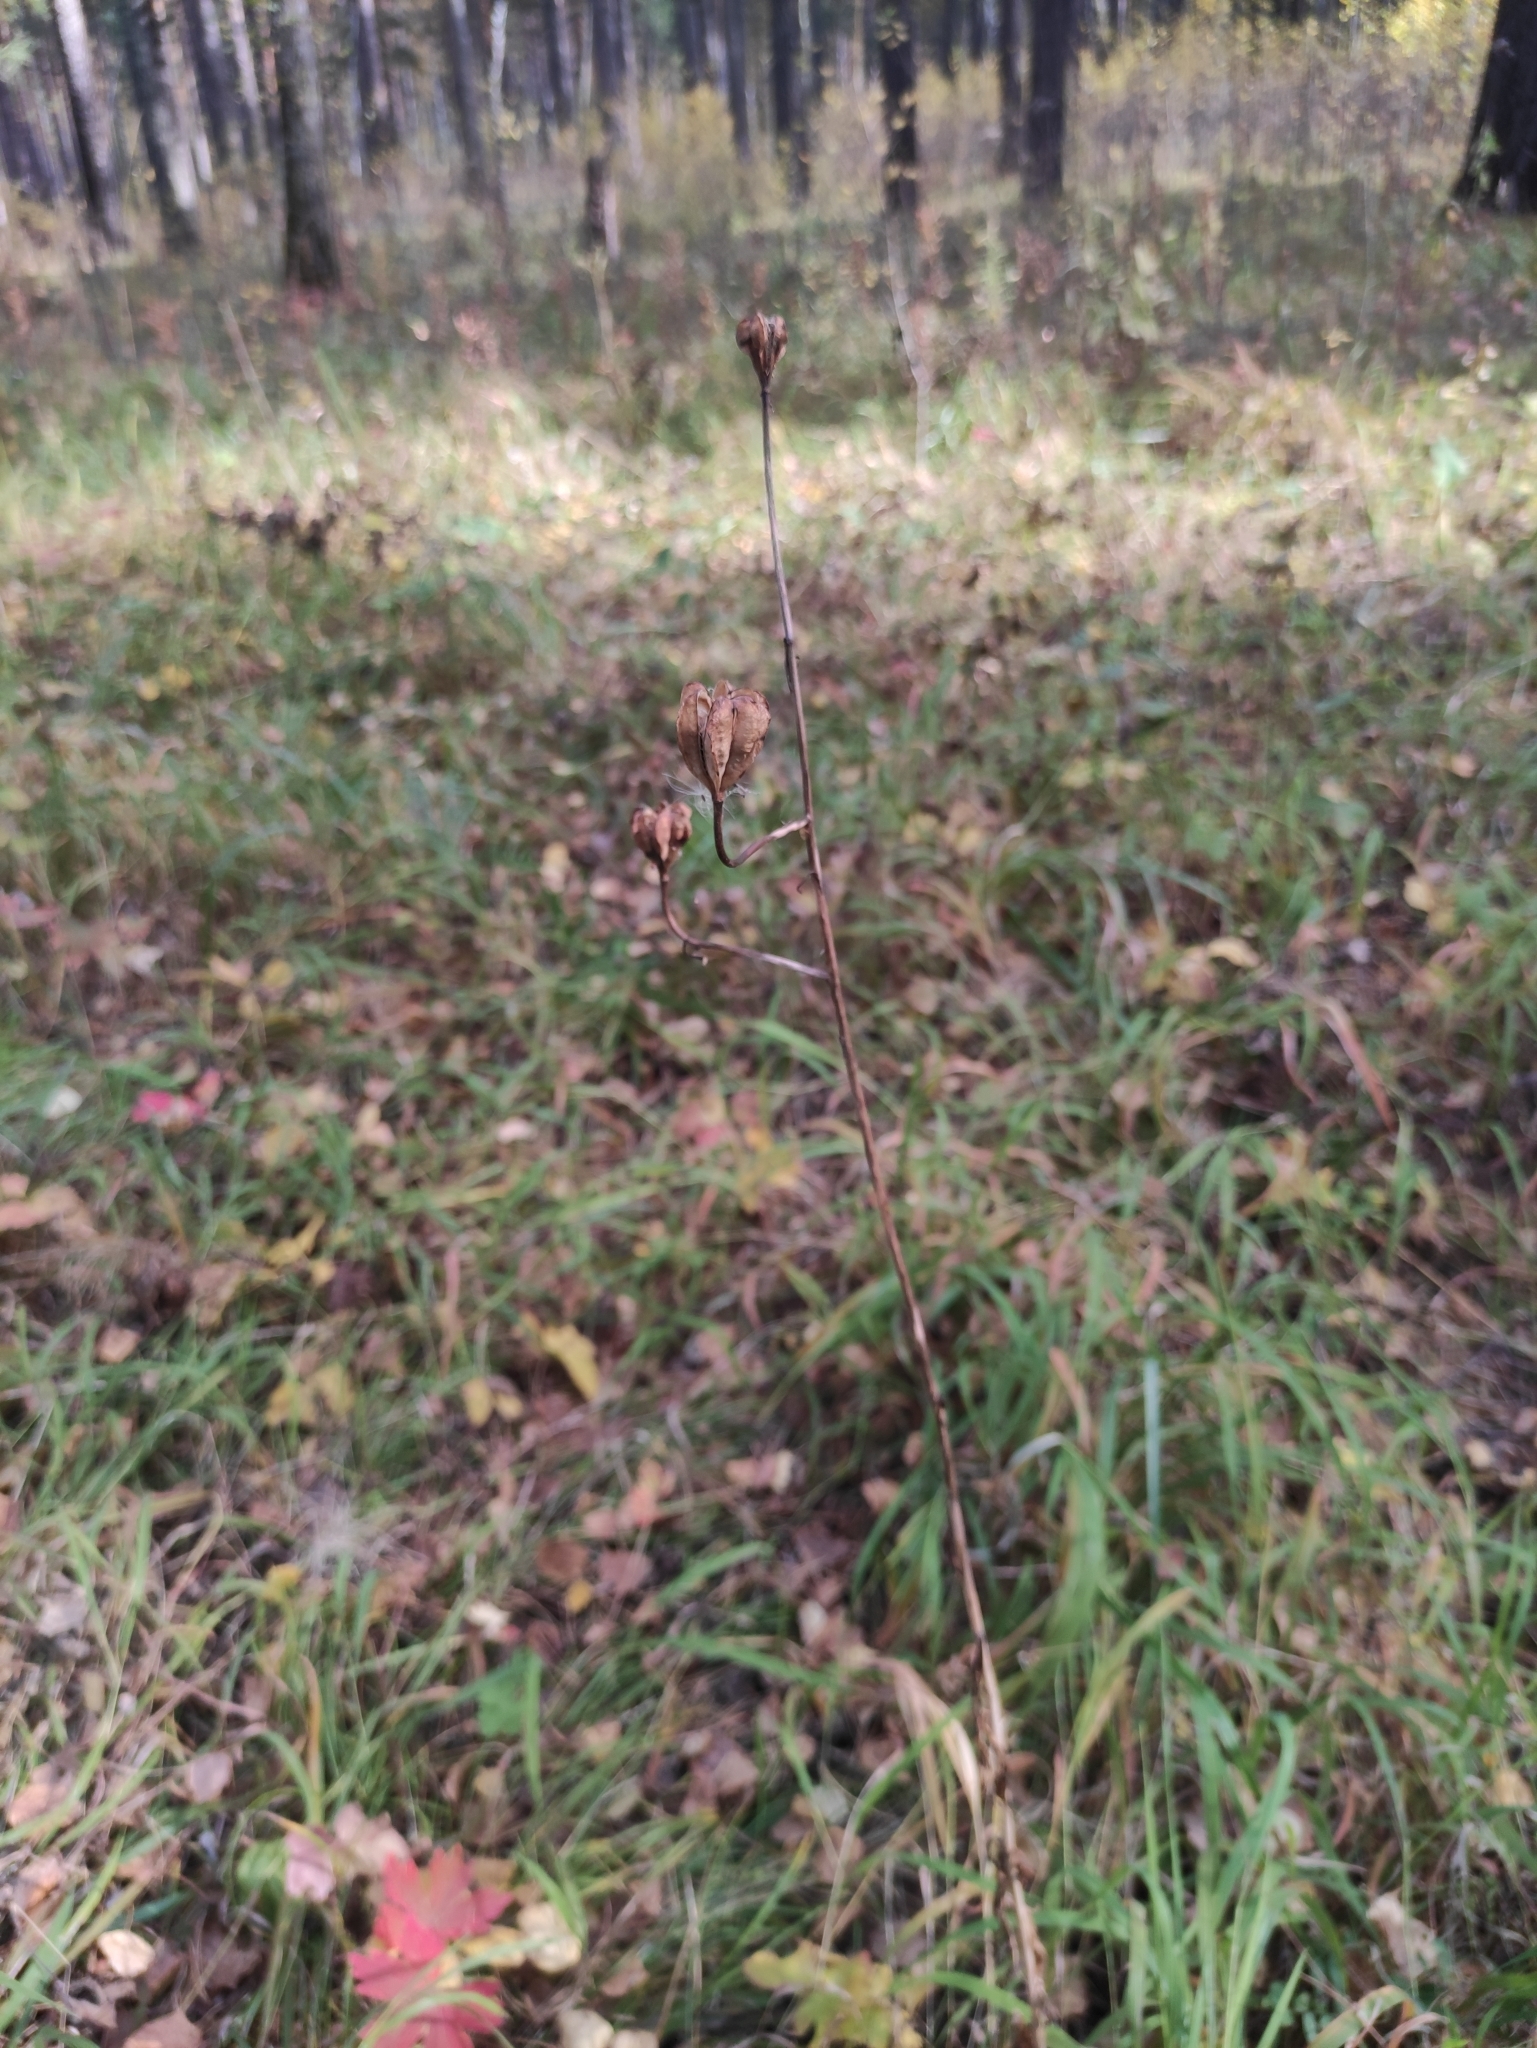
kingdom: Plantae
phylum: Tracheophyta
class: Liliopsida
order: Liliales
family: Liliaceae
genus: Lilium
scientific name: Lilium martagon
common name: Martagon lily
